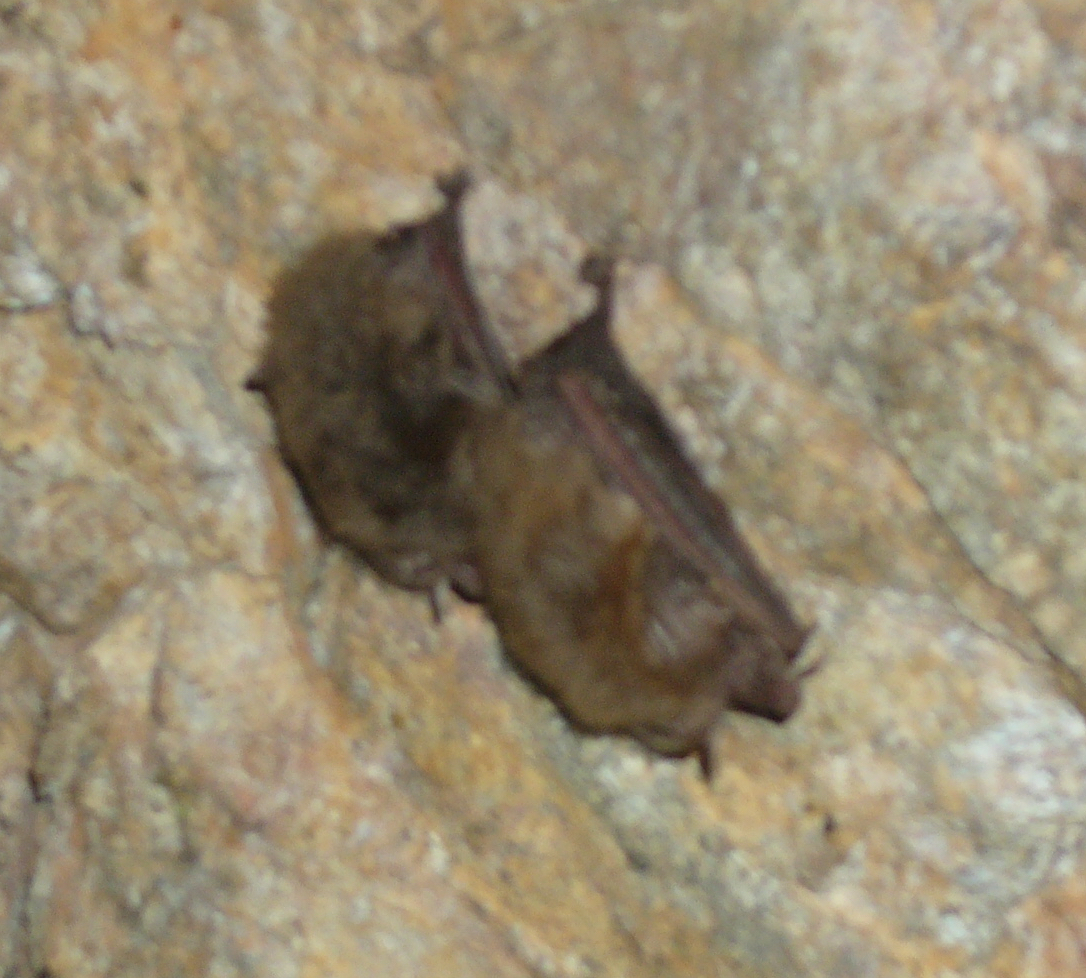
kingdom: Animalia
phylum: Chordata
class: Mammalia
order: Chiroptera
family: Vespertilionidae
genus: Corynorhinus
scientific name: Corynorhinus townsendii
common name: Townsend's big-eared bat
